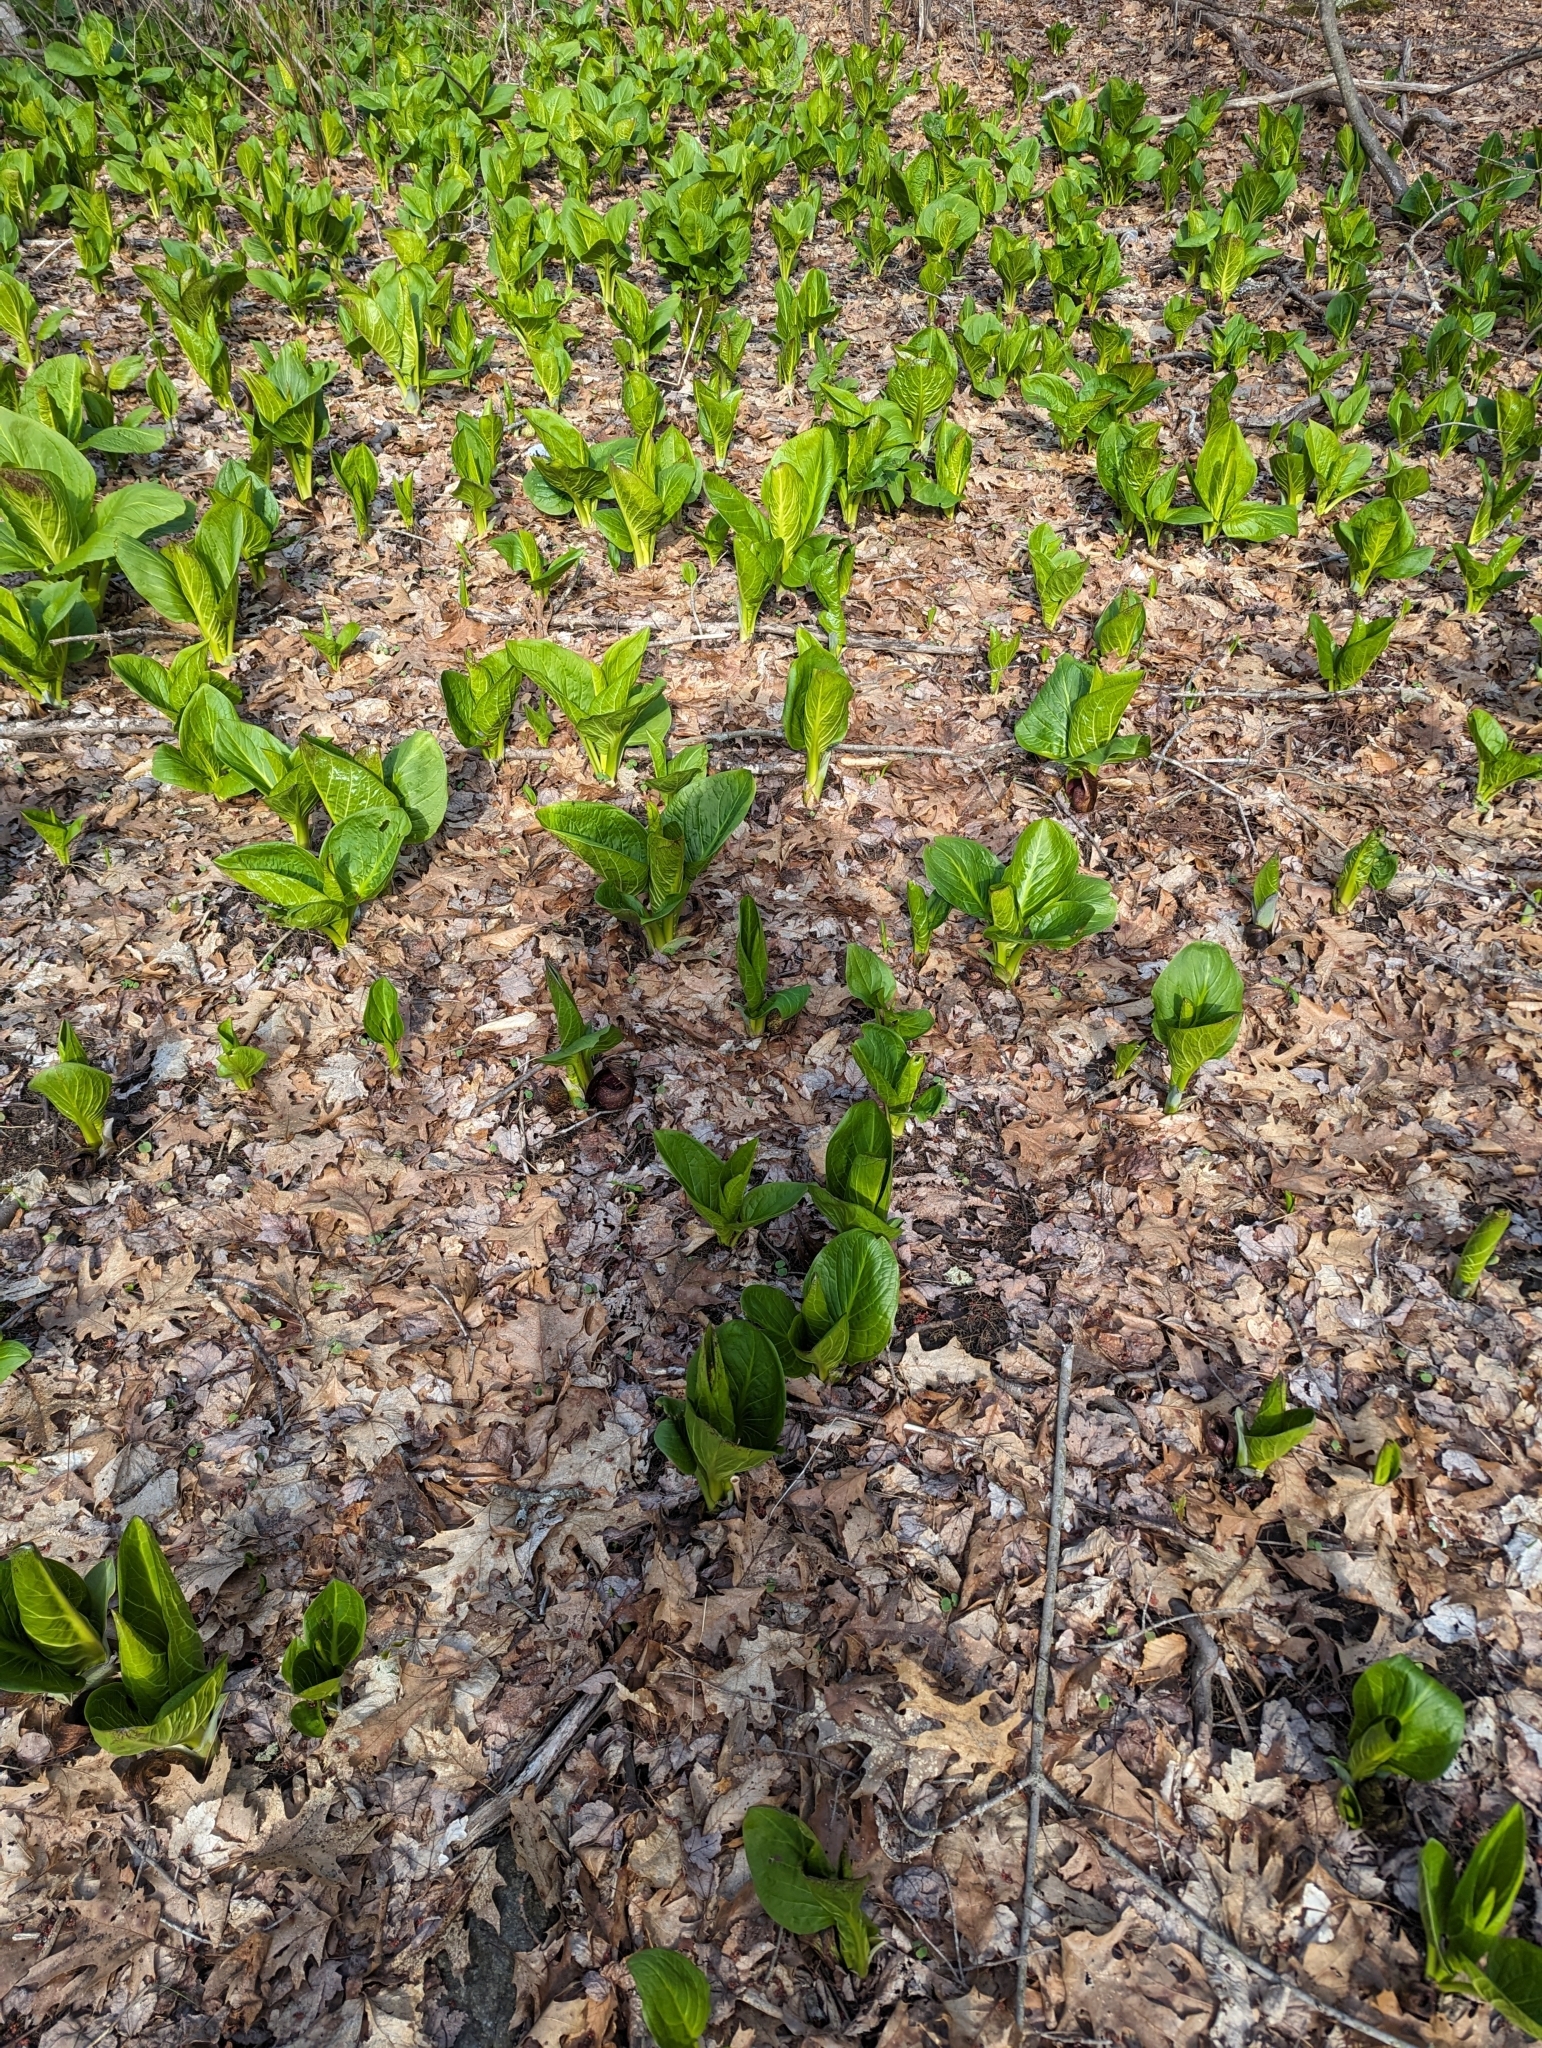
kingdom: Plantae
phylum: Tracheophyta
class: Liliopsida
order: Alismatales
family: Araceae
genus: Symplocarpus
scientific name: Symplocarpus foetidus
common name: Eastern skunk cabbage
